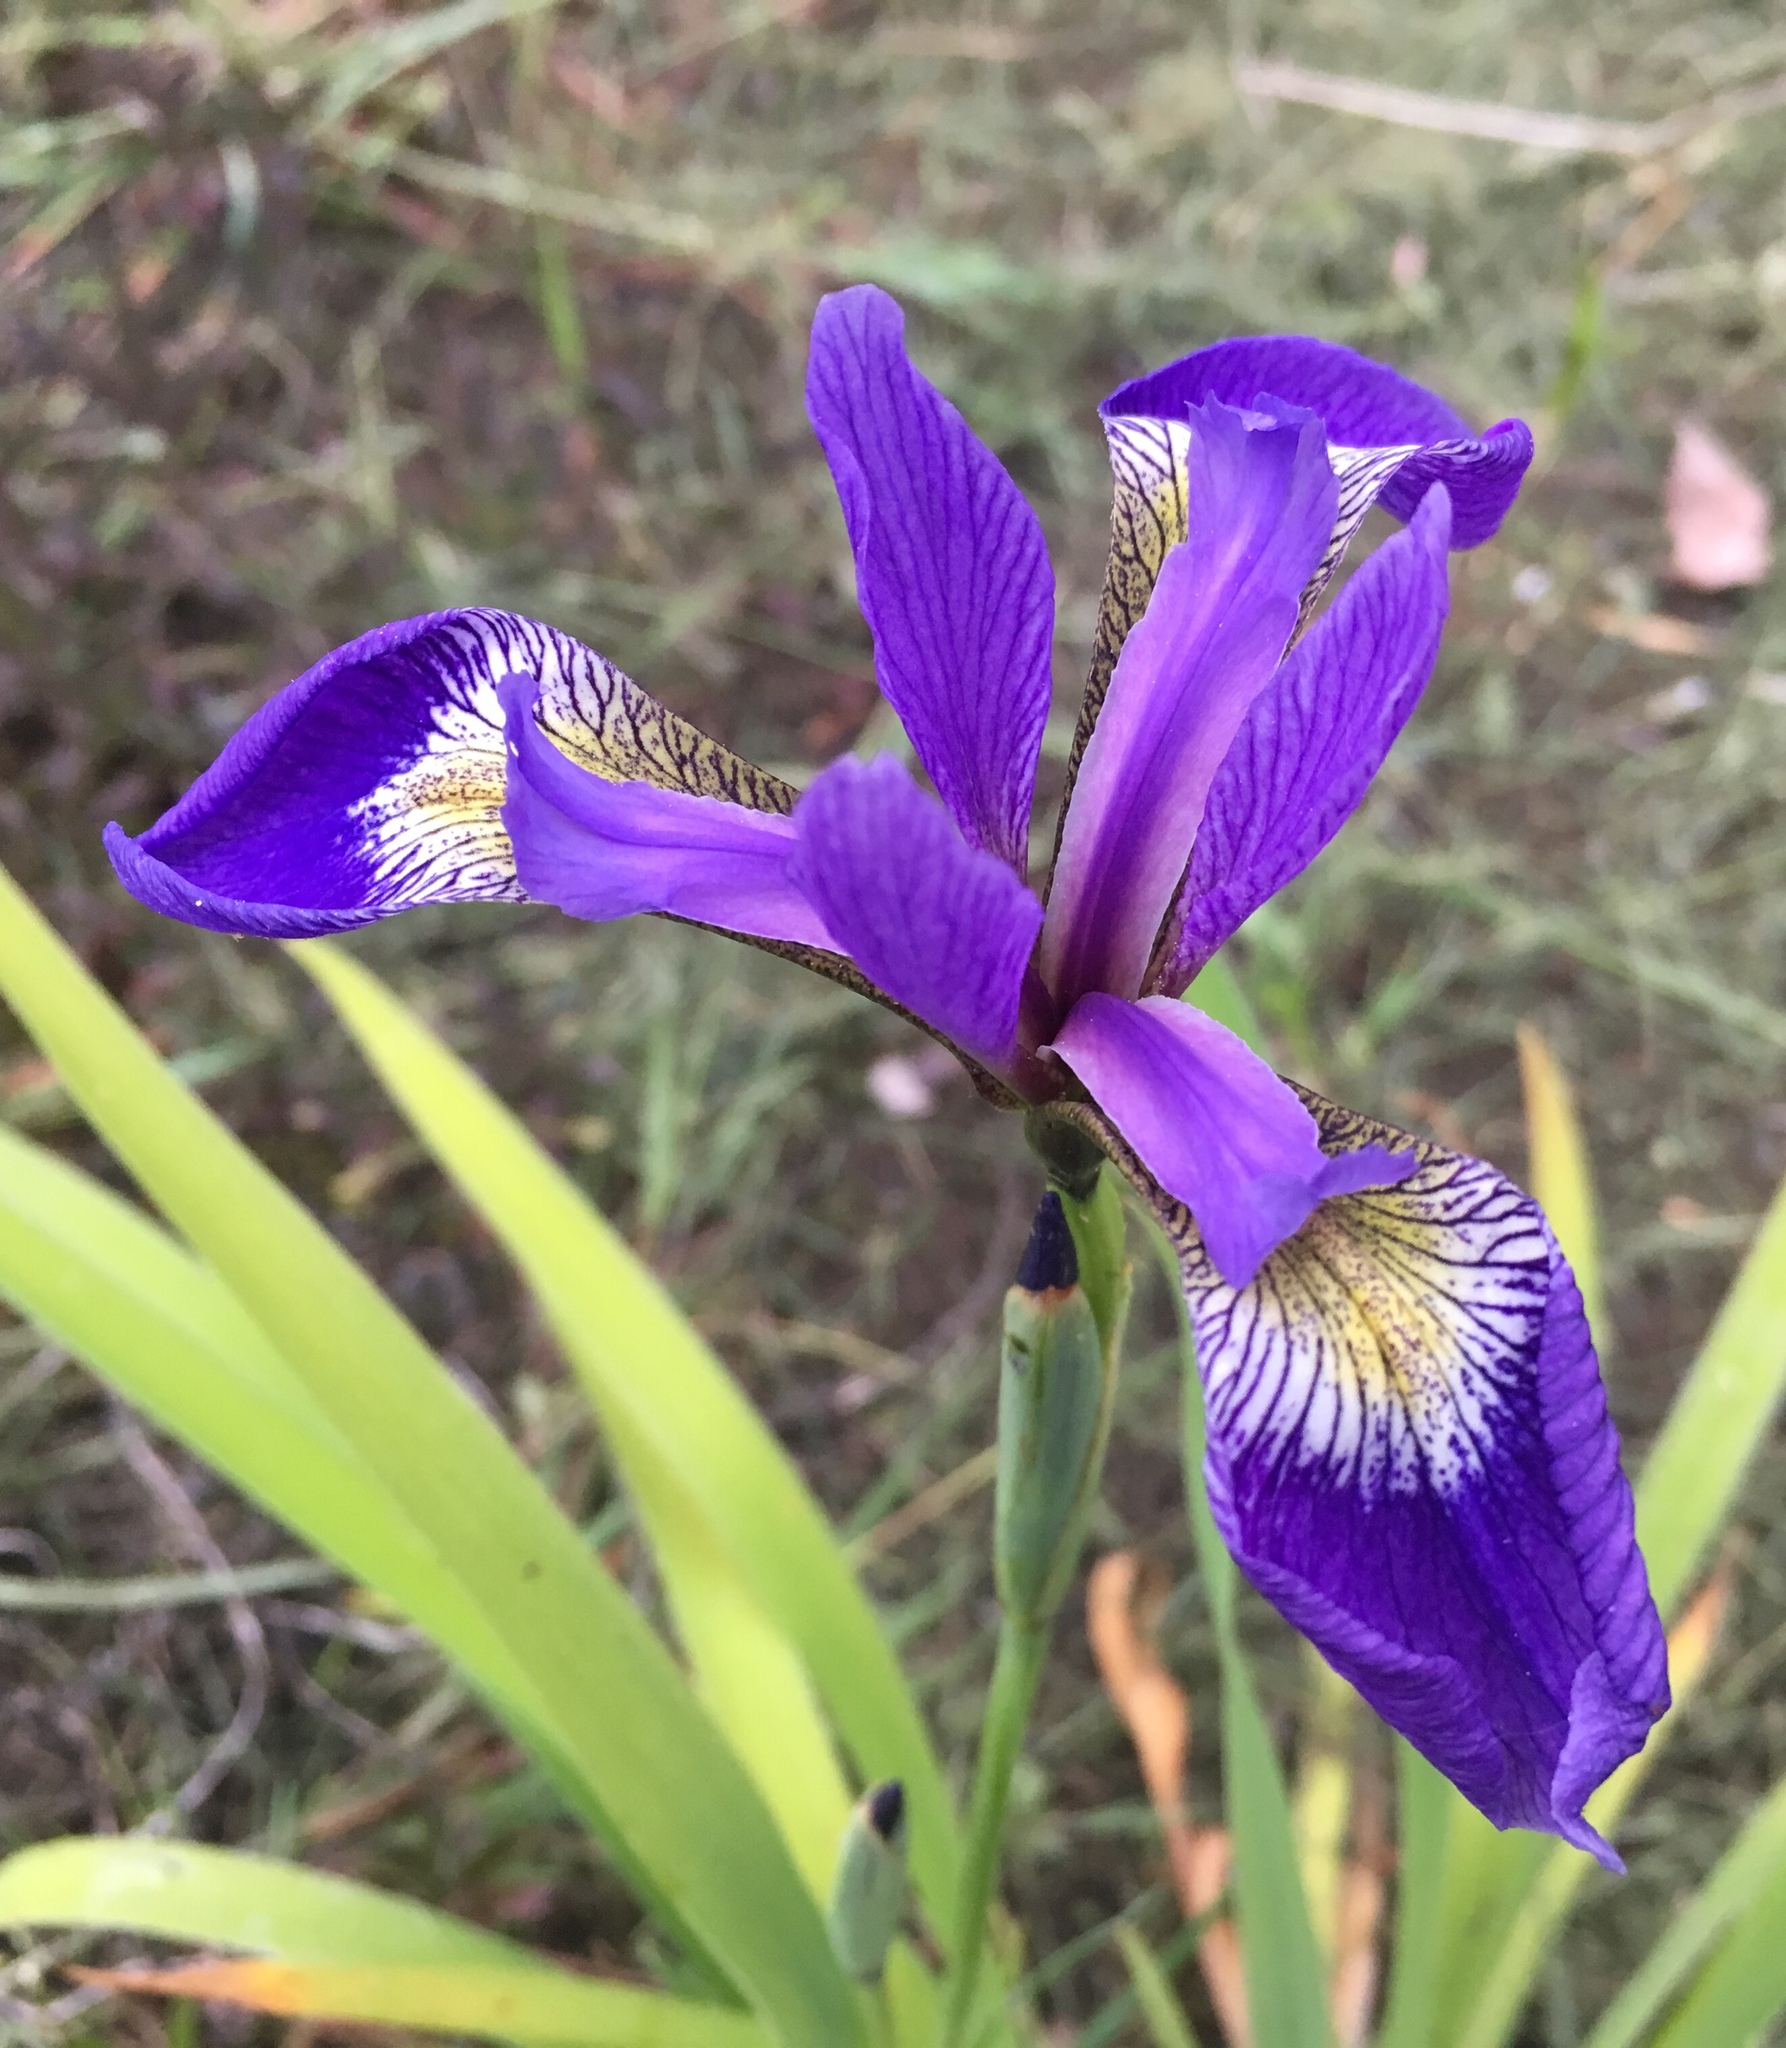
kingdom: Plantae
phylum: Tracheophyta
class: Liliopsida
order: Asparagales
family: Iridaceae
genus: Iris
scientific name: Iris versicolor
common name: Purple iris
